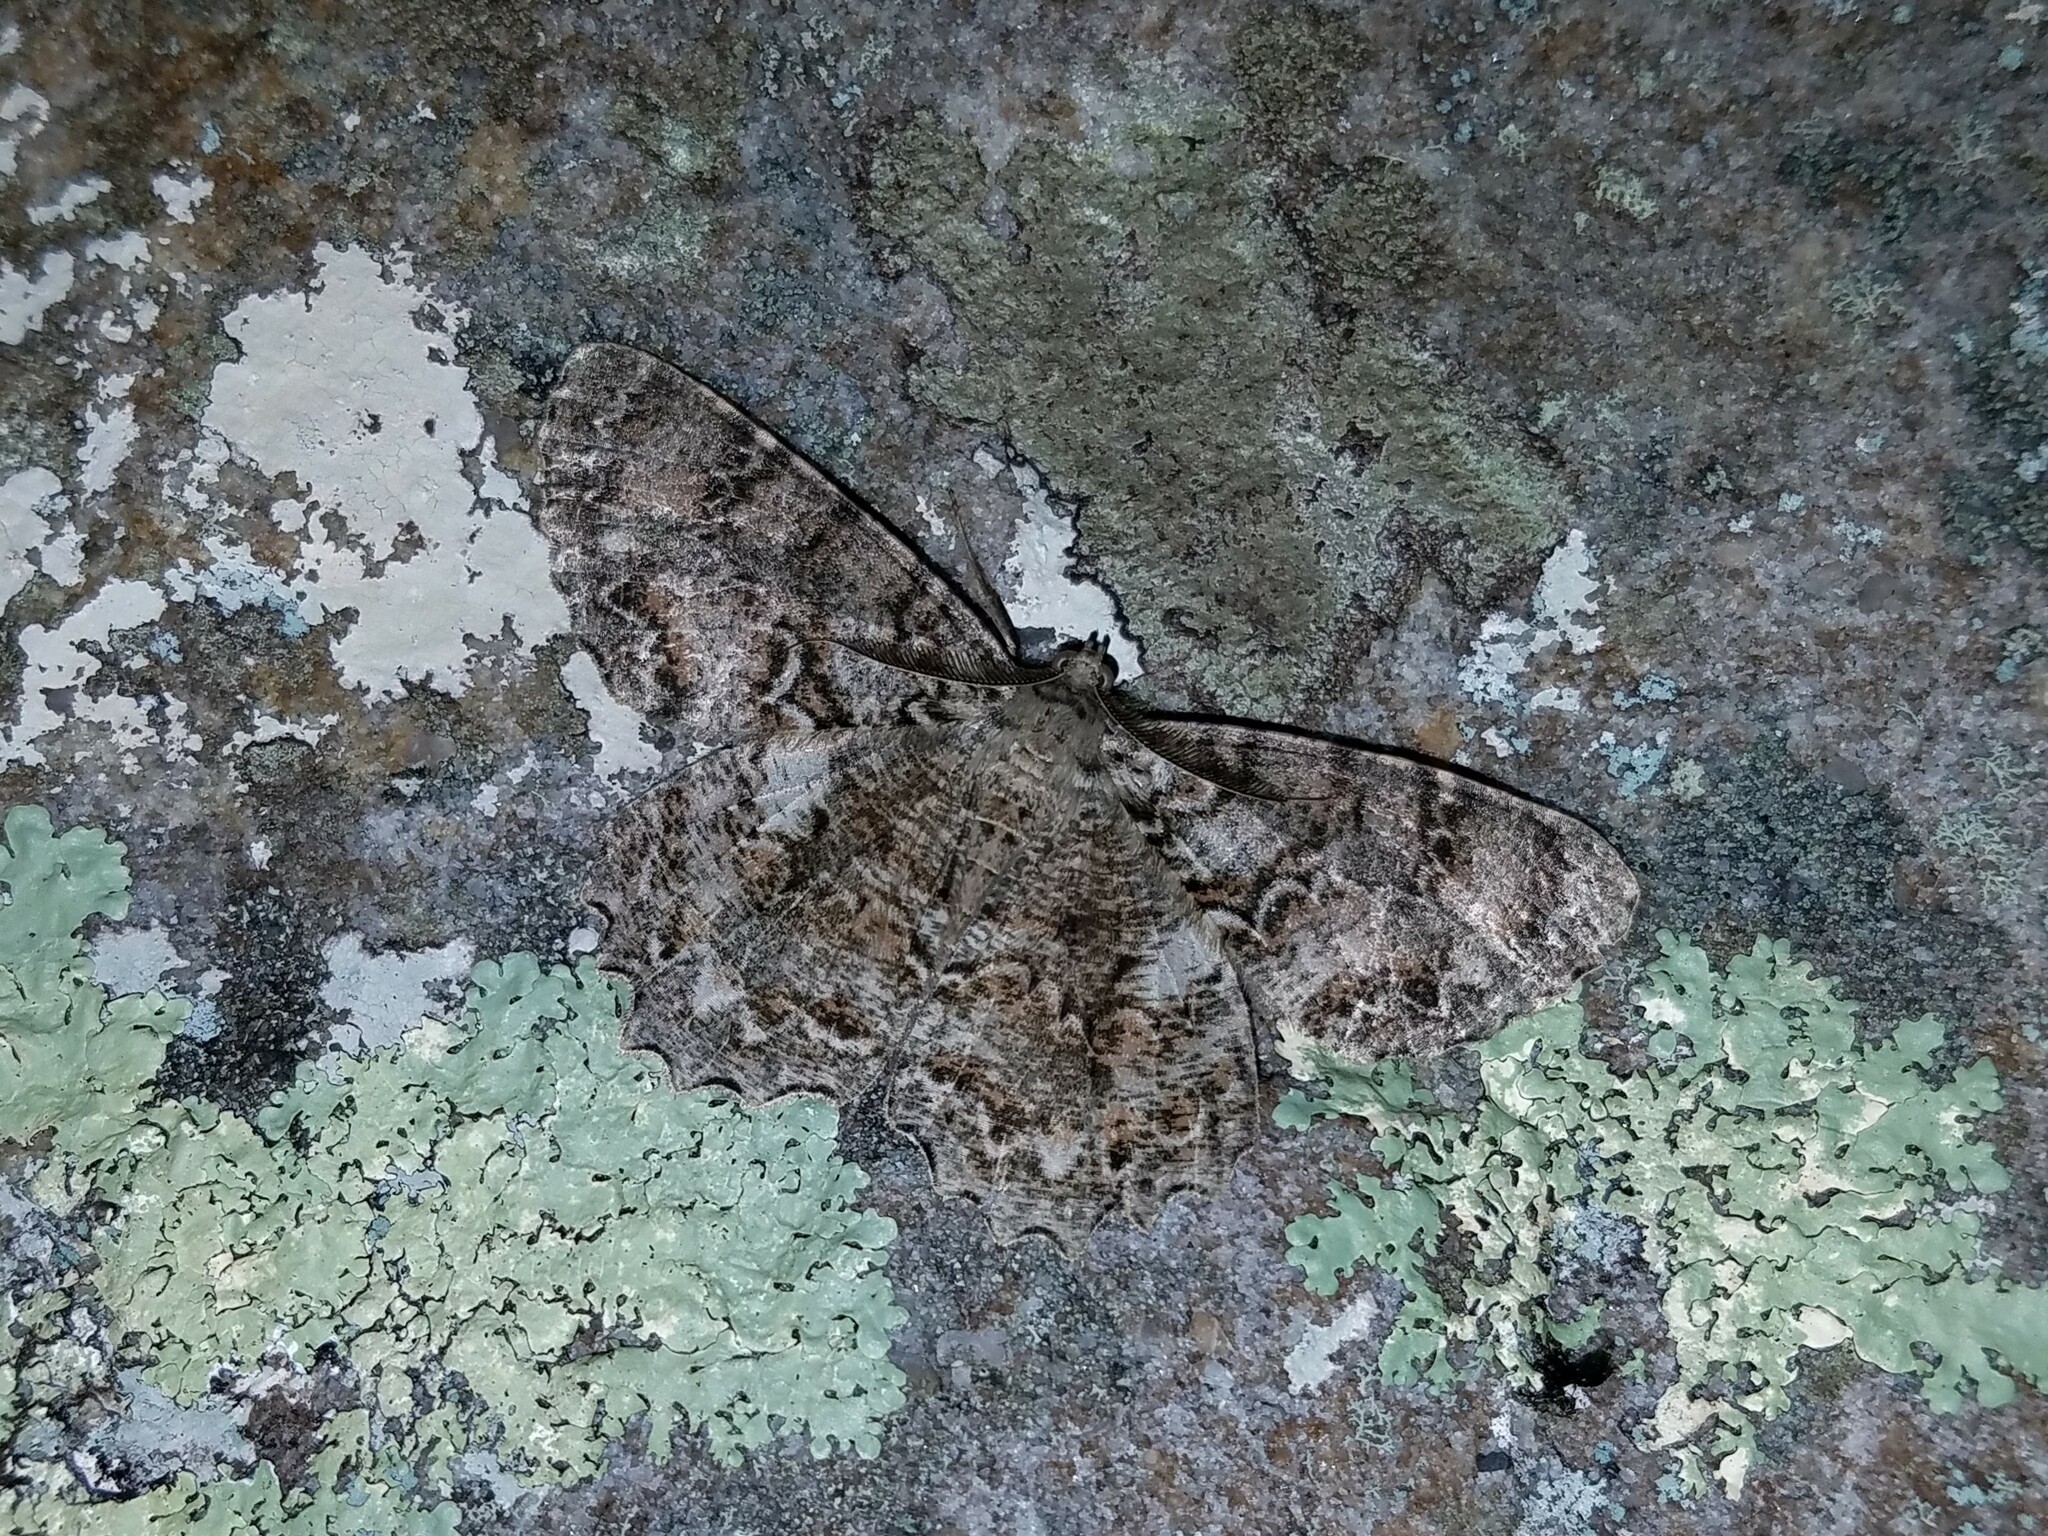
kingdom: Animalia
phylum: Arthropoda
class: Insecta
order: Lepidoptera
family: Geometridae
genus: Epimecis
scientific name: Epimecis hortaria
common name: Tulip-tree beauty
